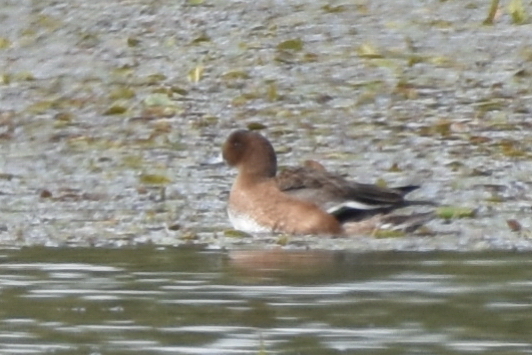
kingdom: Animalia
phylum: Chordata
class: Aves
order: Anseriformes
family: Anatidae
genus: Mareca
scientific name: Mareca penelope
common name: Eurasian wigeon
